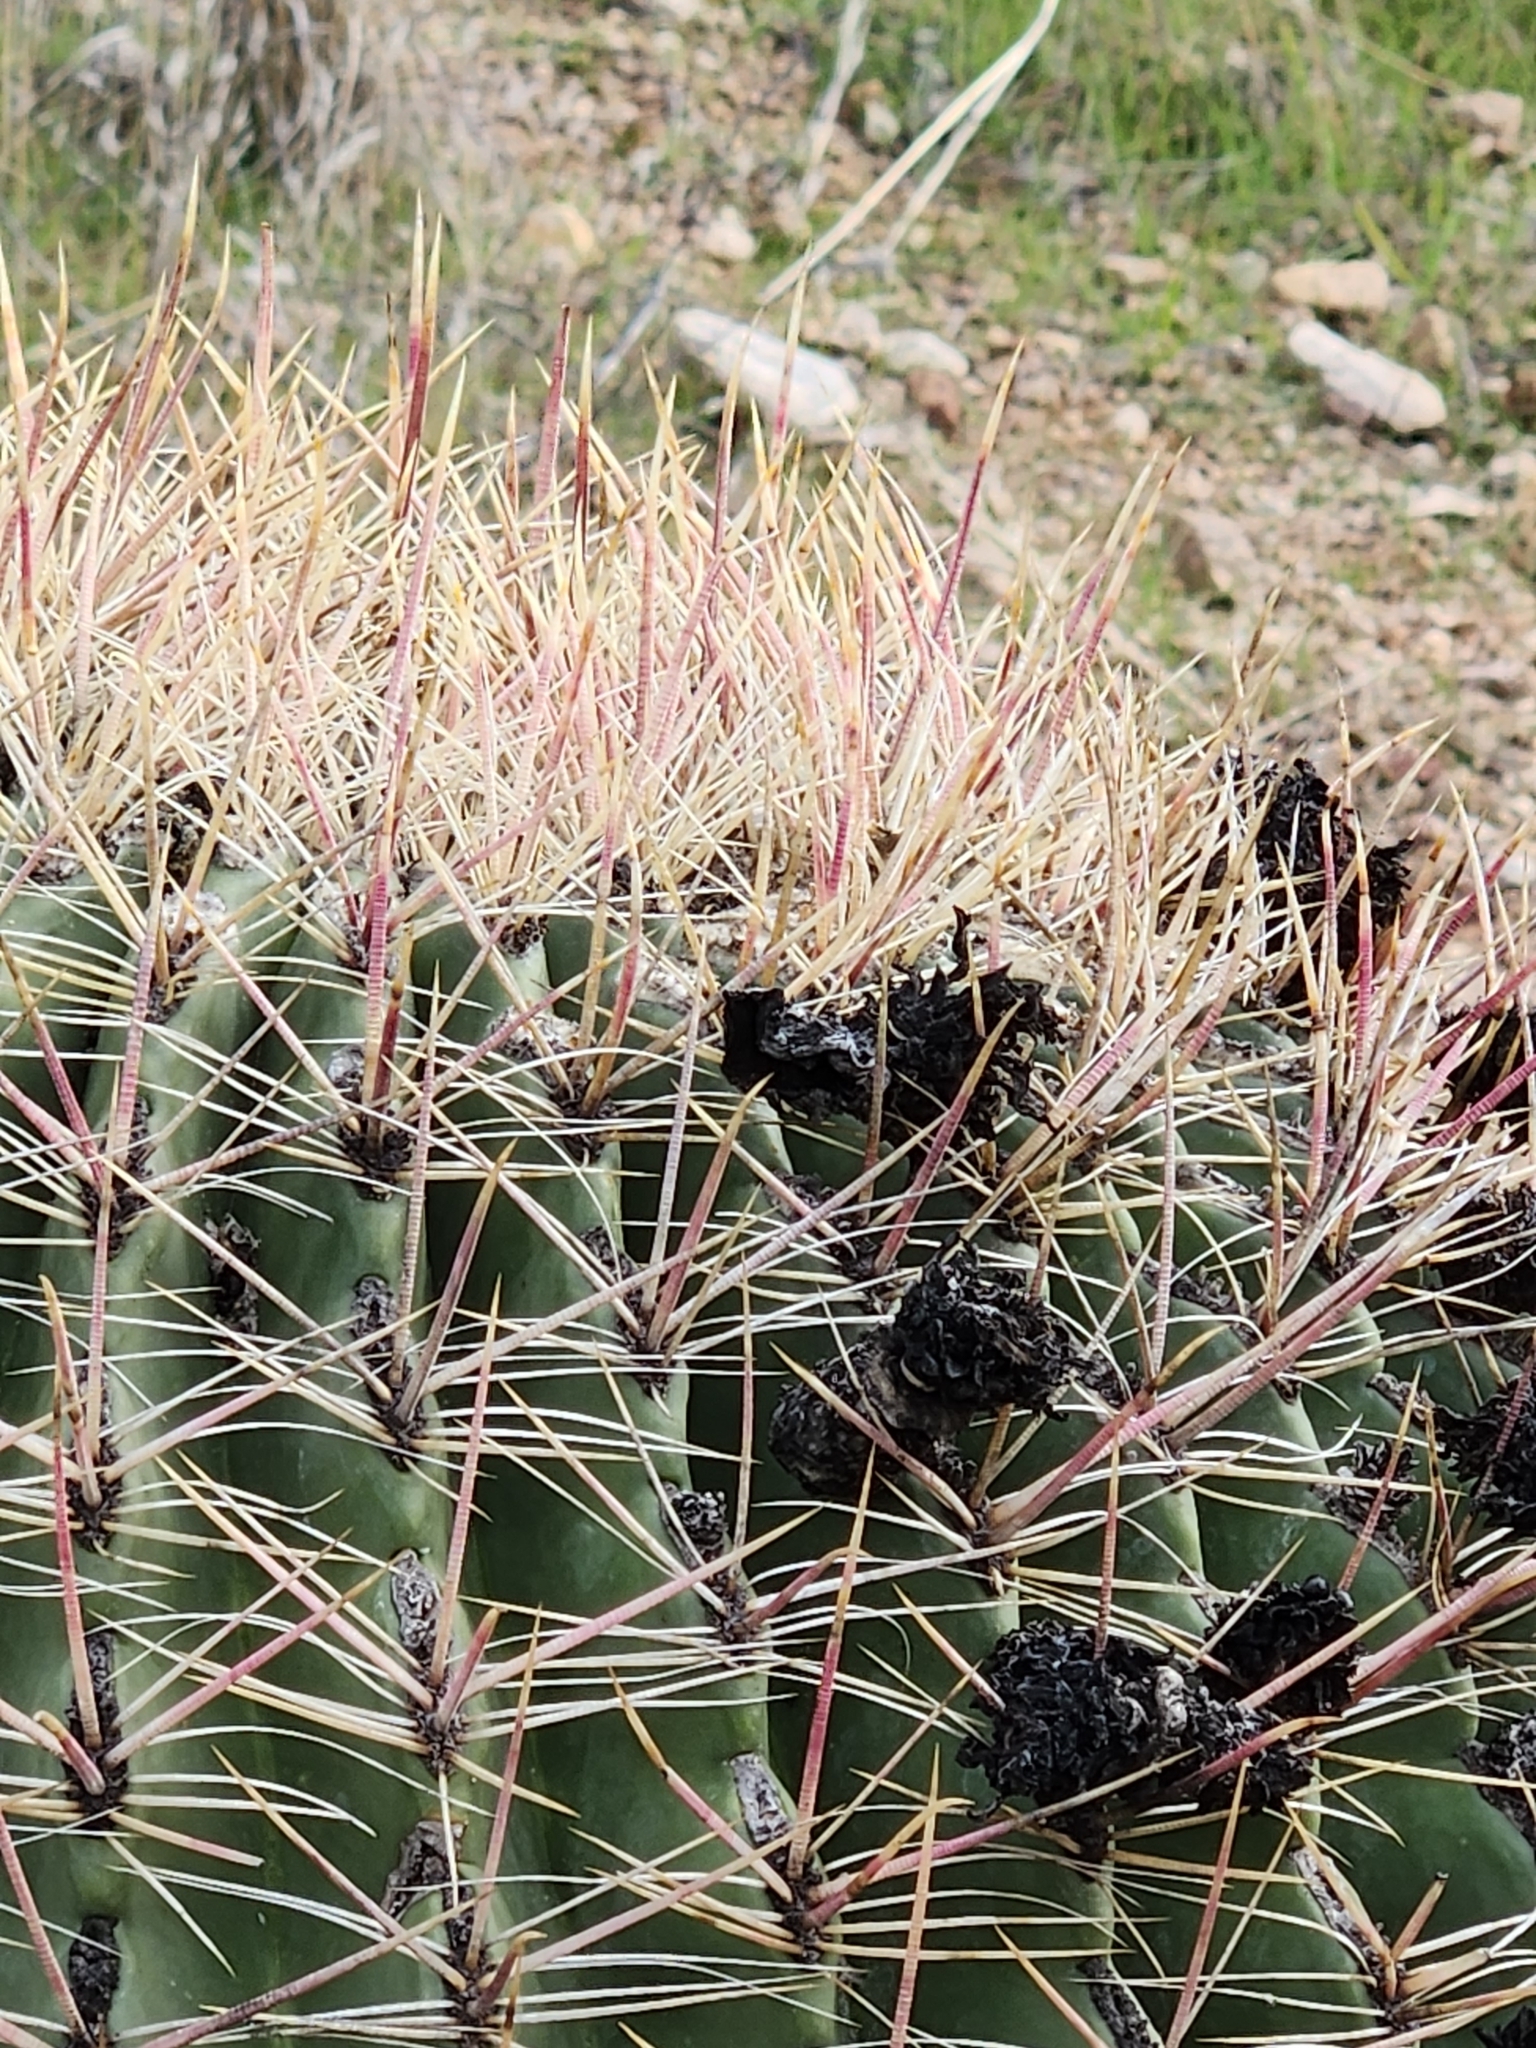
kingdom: Plantae
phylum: Tracheophyta
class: Magnoliopsida
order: Caryophyllales
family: Cactaceae
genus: Ferocactus
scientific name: Ferocactus cylindraceus
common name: California barrel cactus
